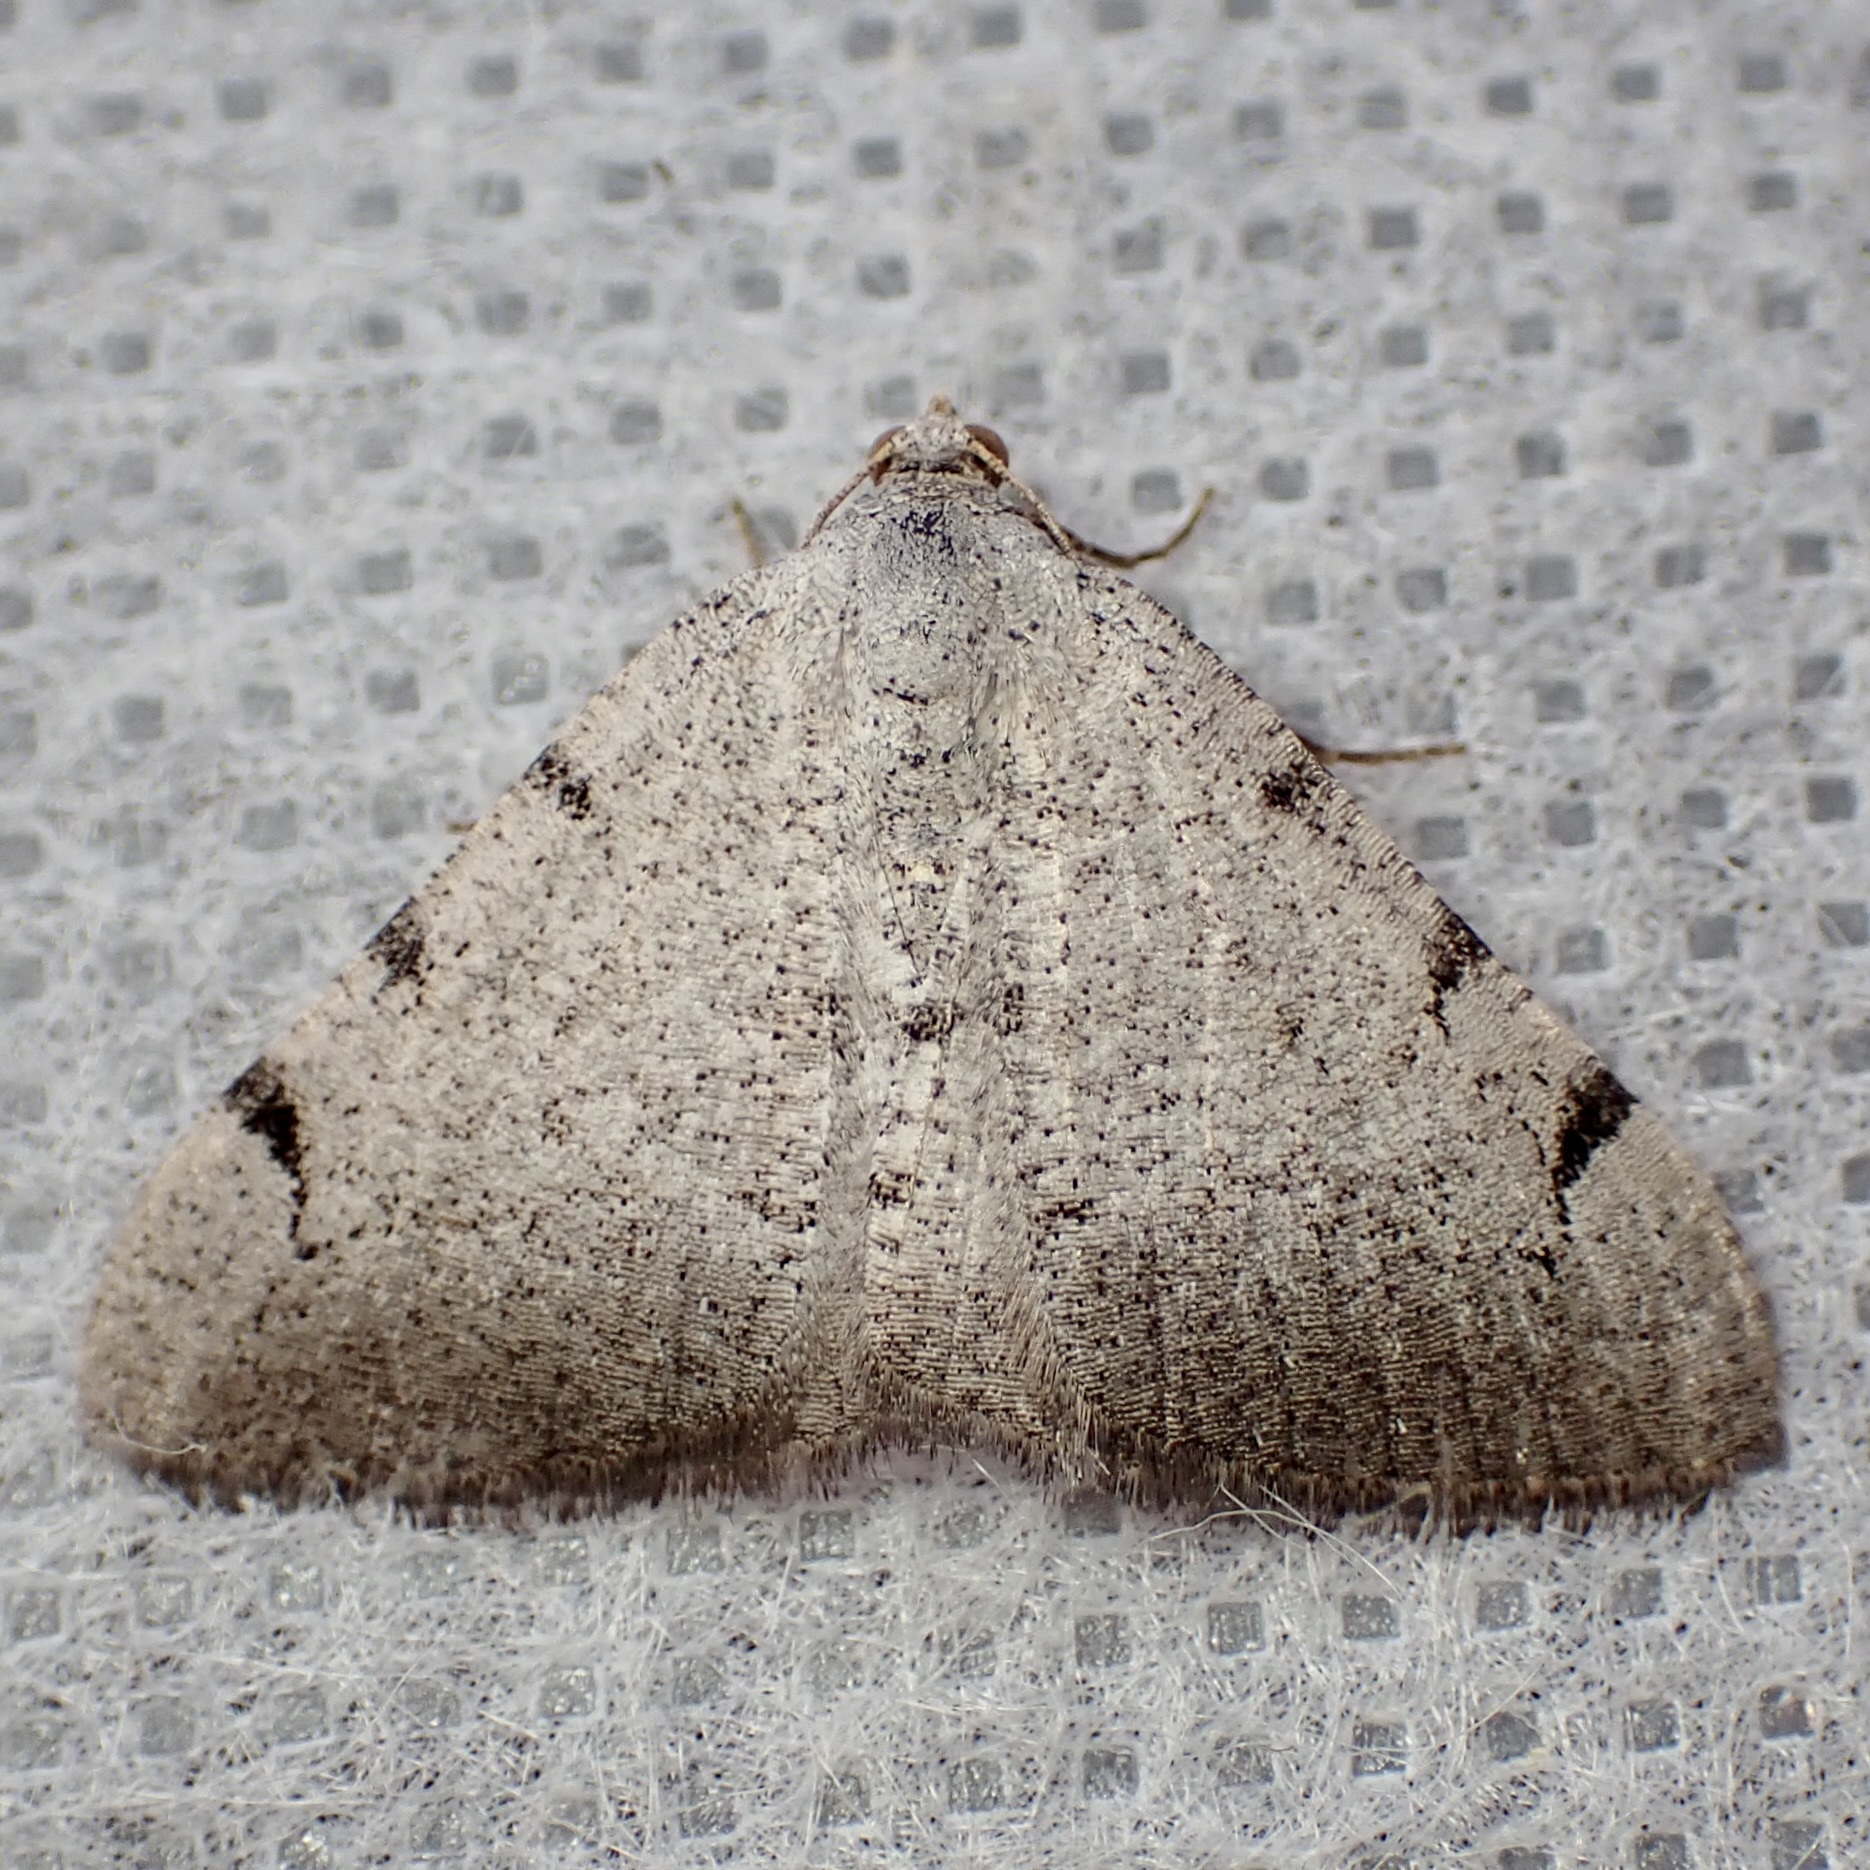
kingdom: Animalia
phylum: Arthropoda
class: Insecta
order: Lepidoptera
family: Geometridae
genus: Digrammia
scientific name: Digrammia triviata
